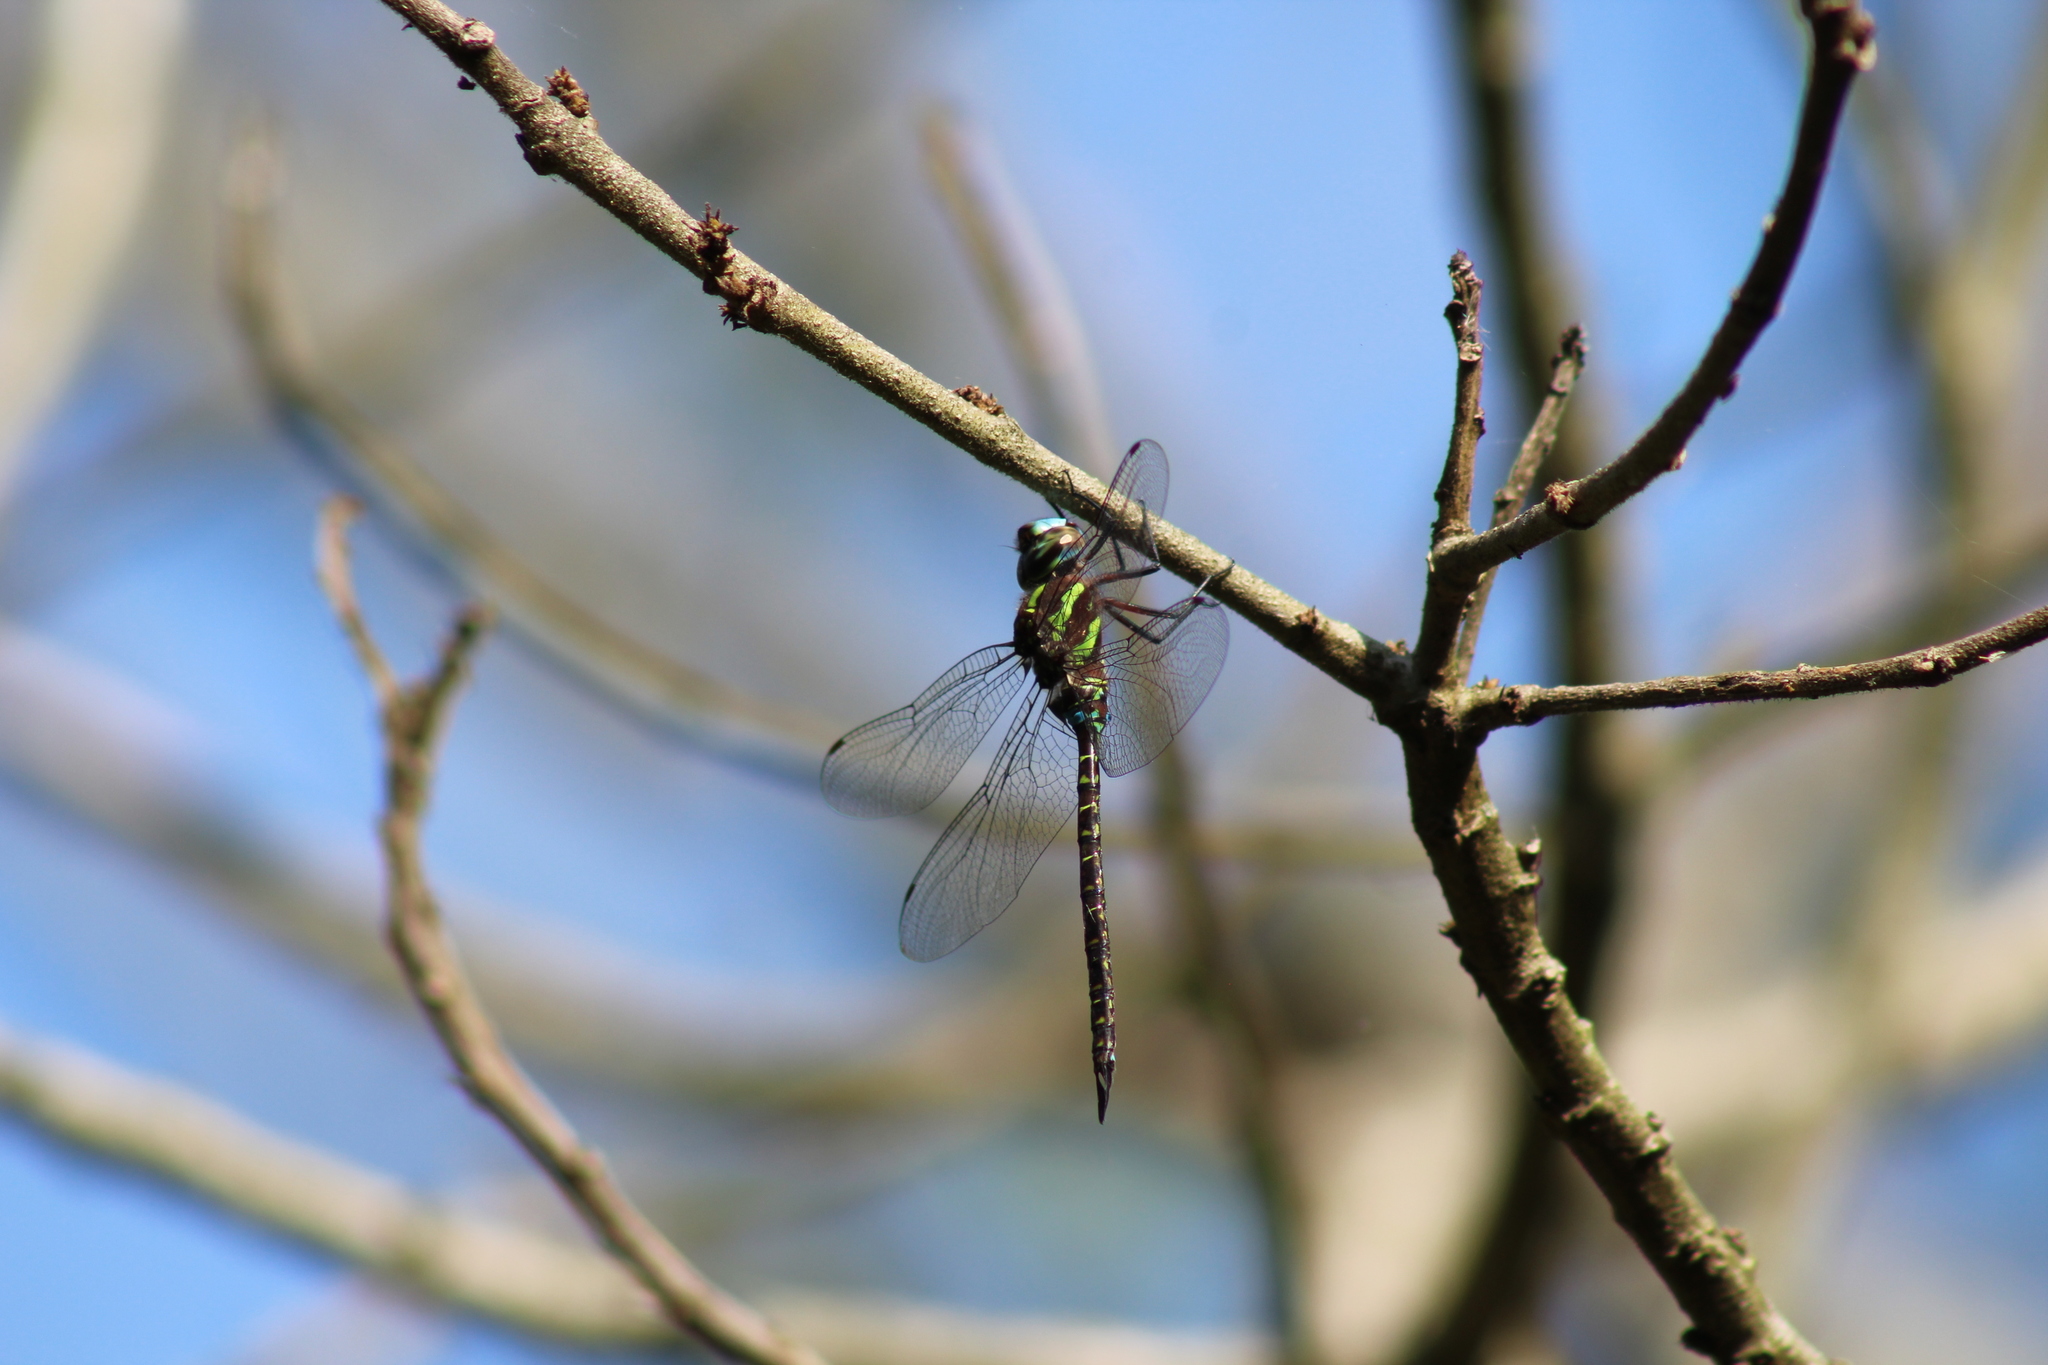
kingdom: Animalia
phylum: Arthropoda
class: Insecta
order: Odonata
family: Aeshnidae
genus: Rhionaeschna
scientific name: Rhionaeschna psilus
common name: Turquoise-tipped darner
